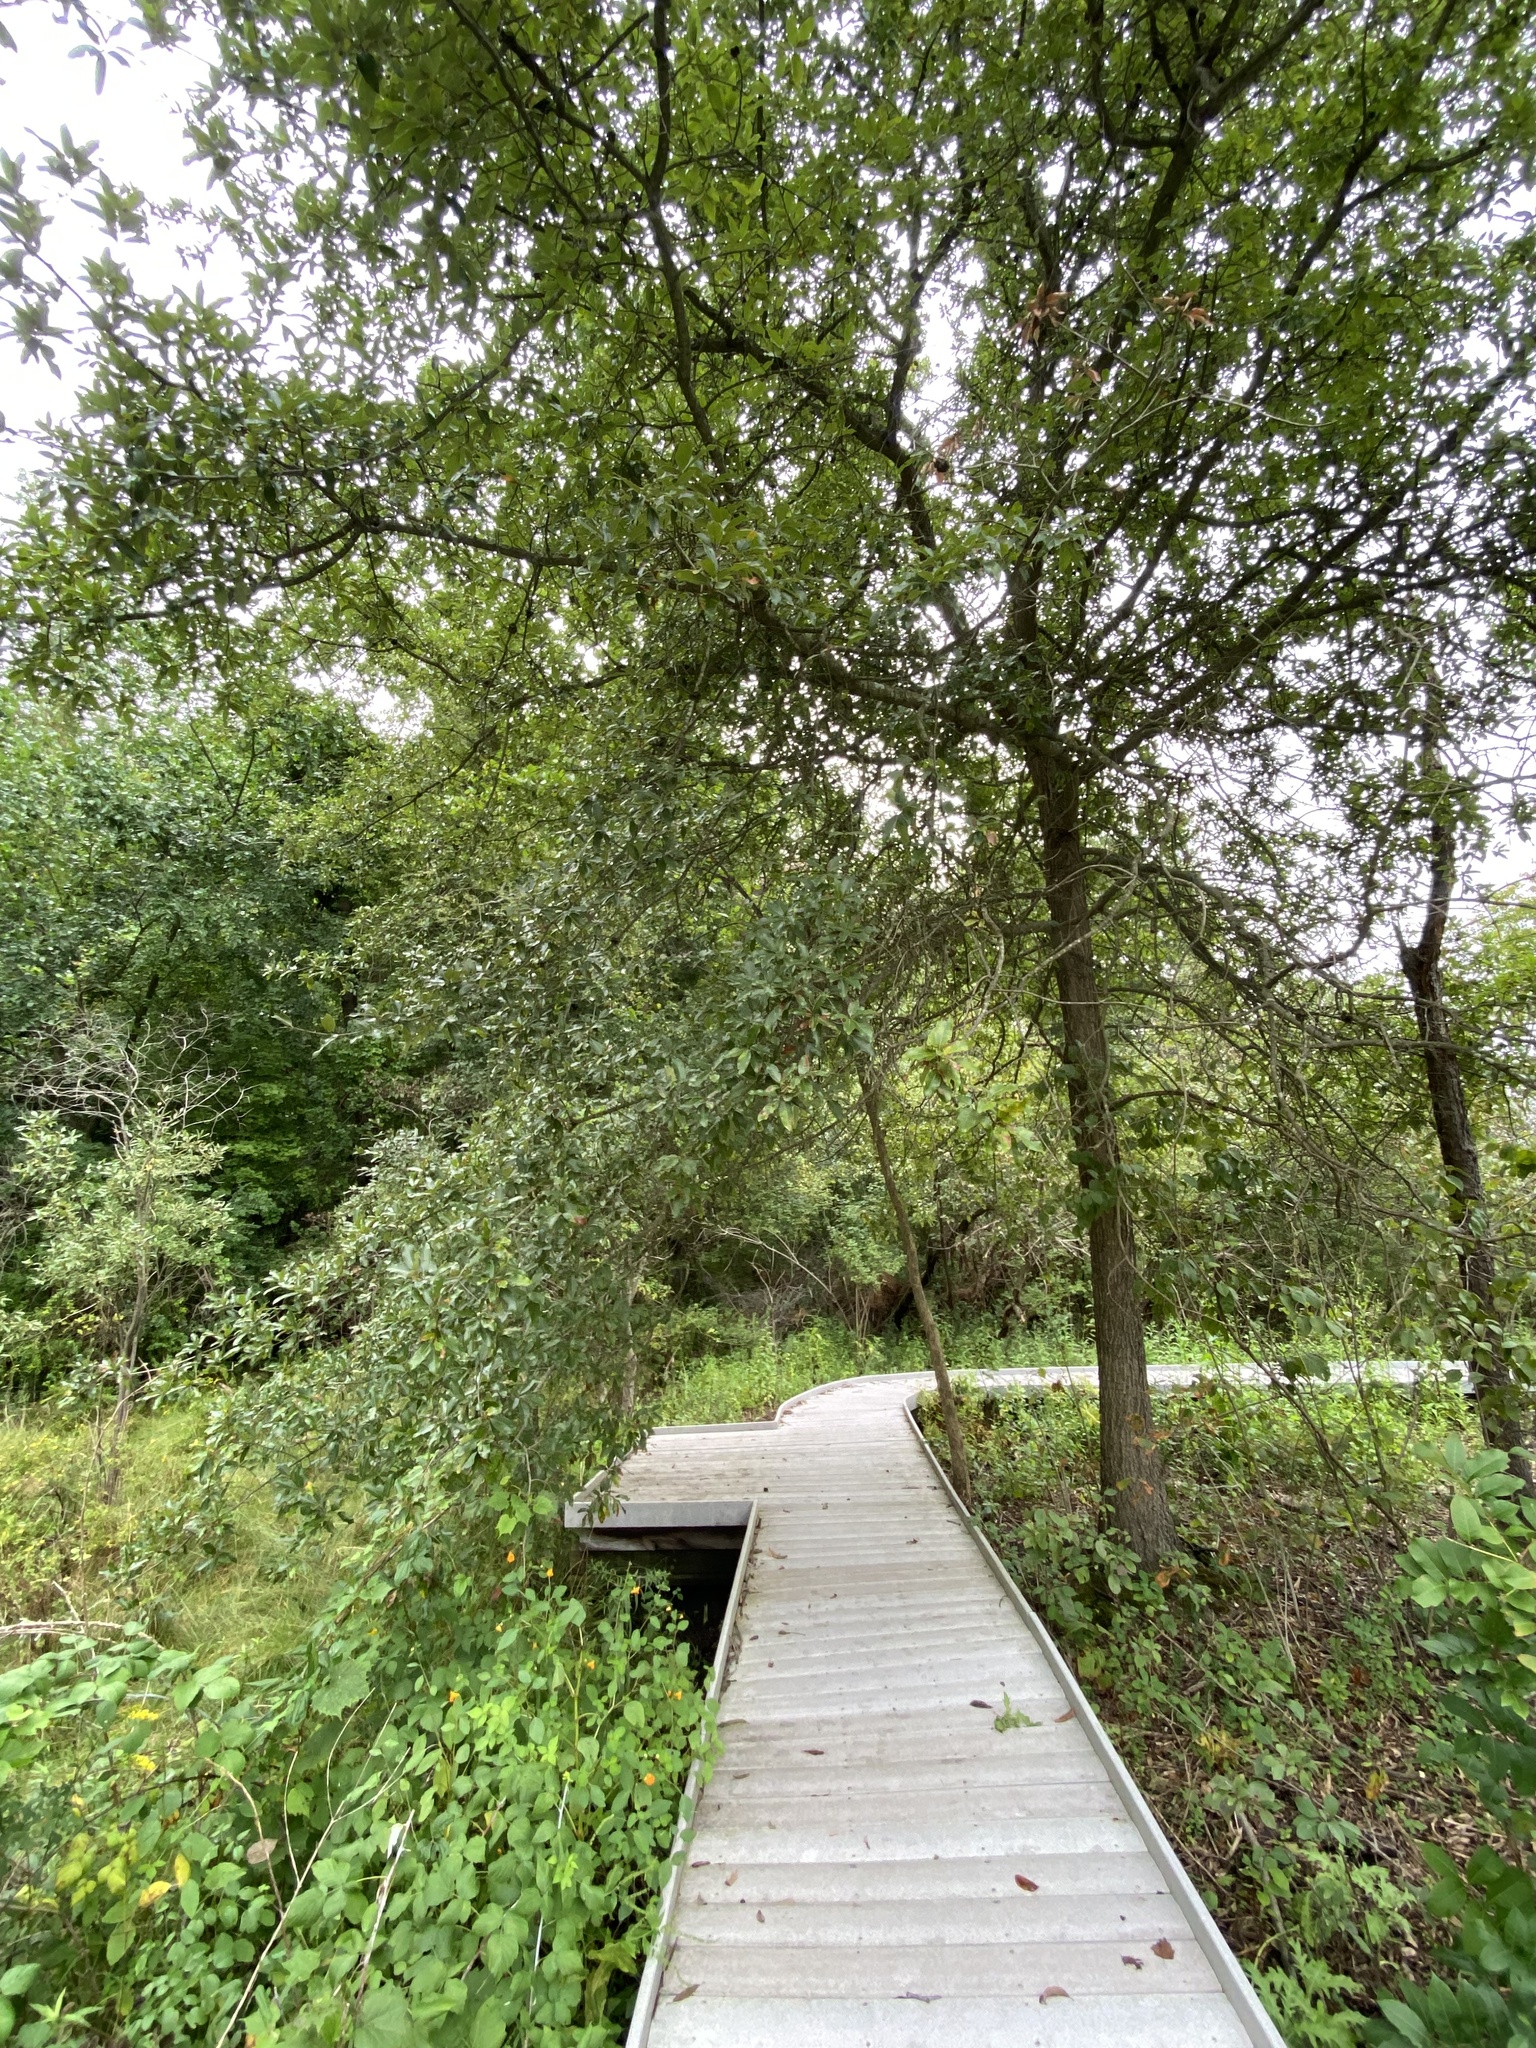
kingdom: Plantae
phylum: Tracheophyta
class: Magnoliopsida
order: Fagales
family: Fagaceae
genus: Quercus
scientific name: Quercus imbricaria
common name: Shingle oak
